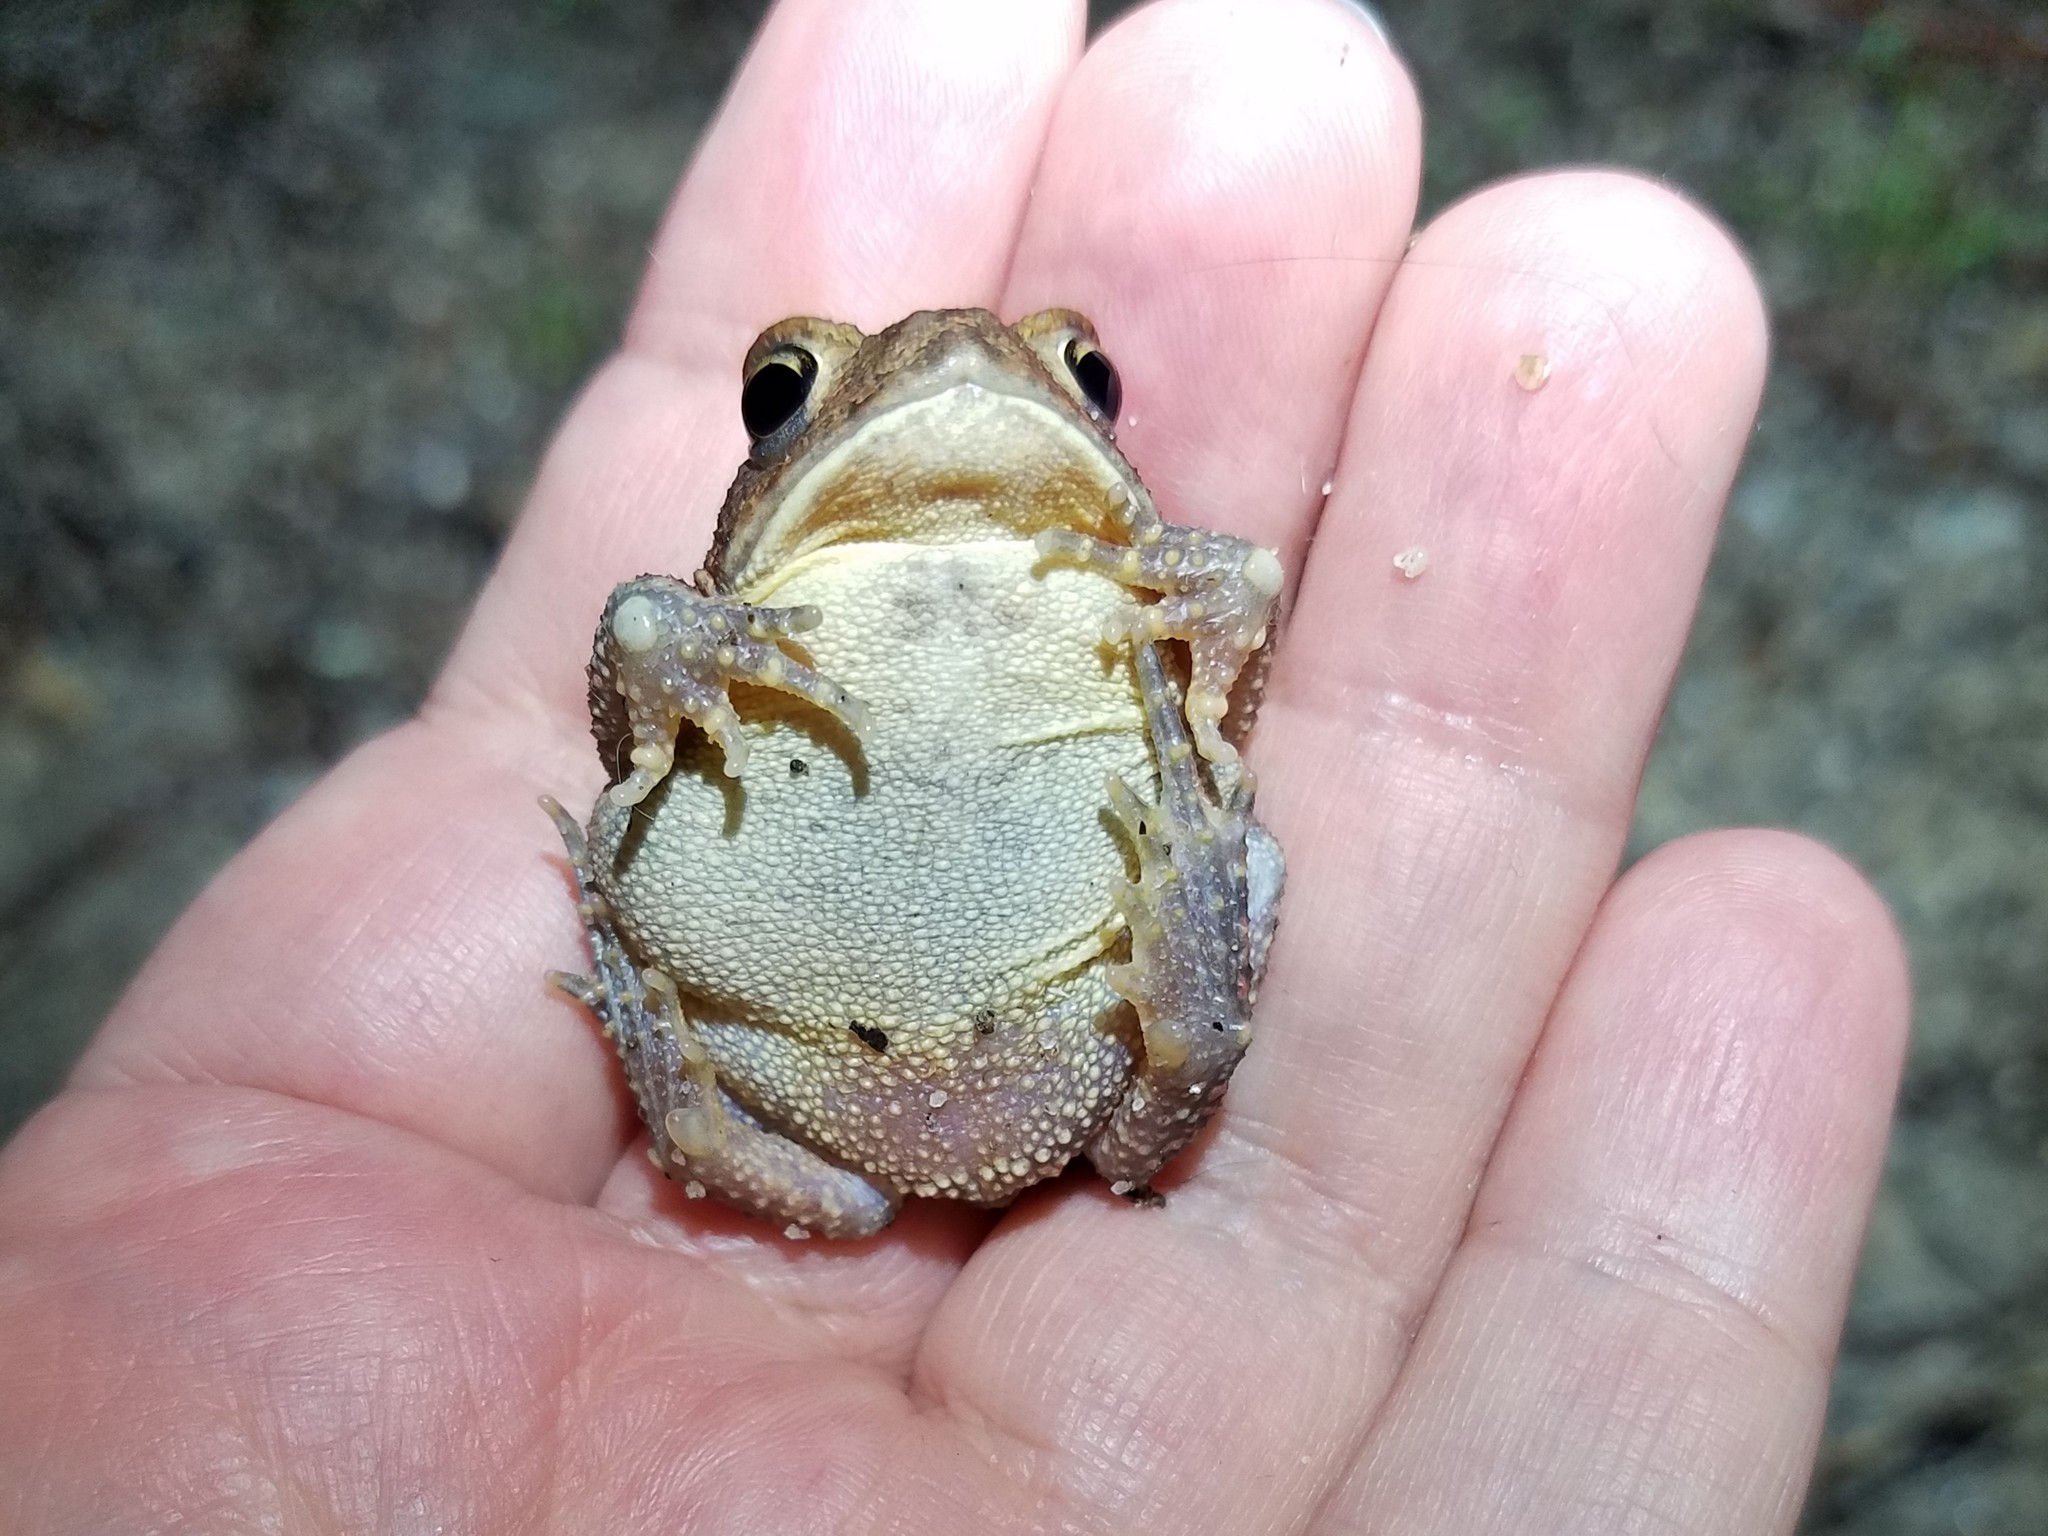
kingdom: Animalia
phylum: Chordata
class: Amphibia
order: Anura
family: Bufonidae
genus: Anaxyrus
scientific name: Anaxyrus americanus
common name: American toad
